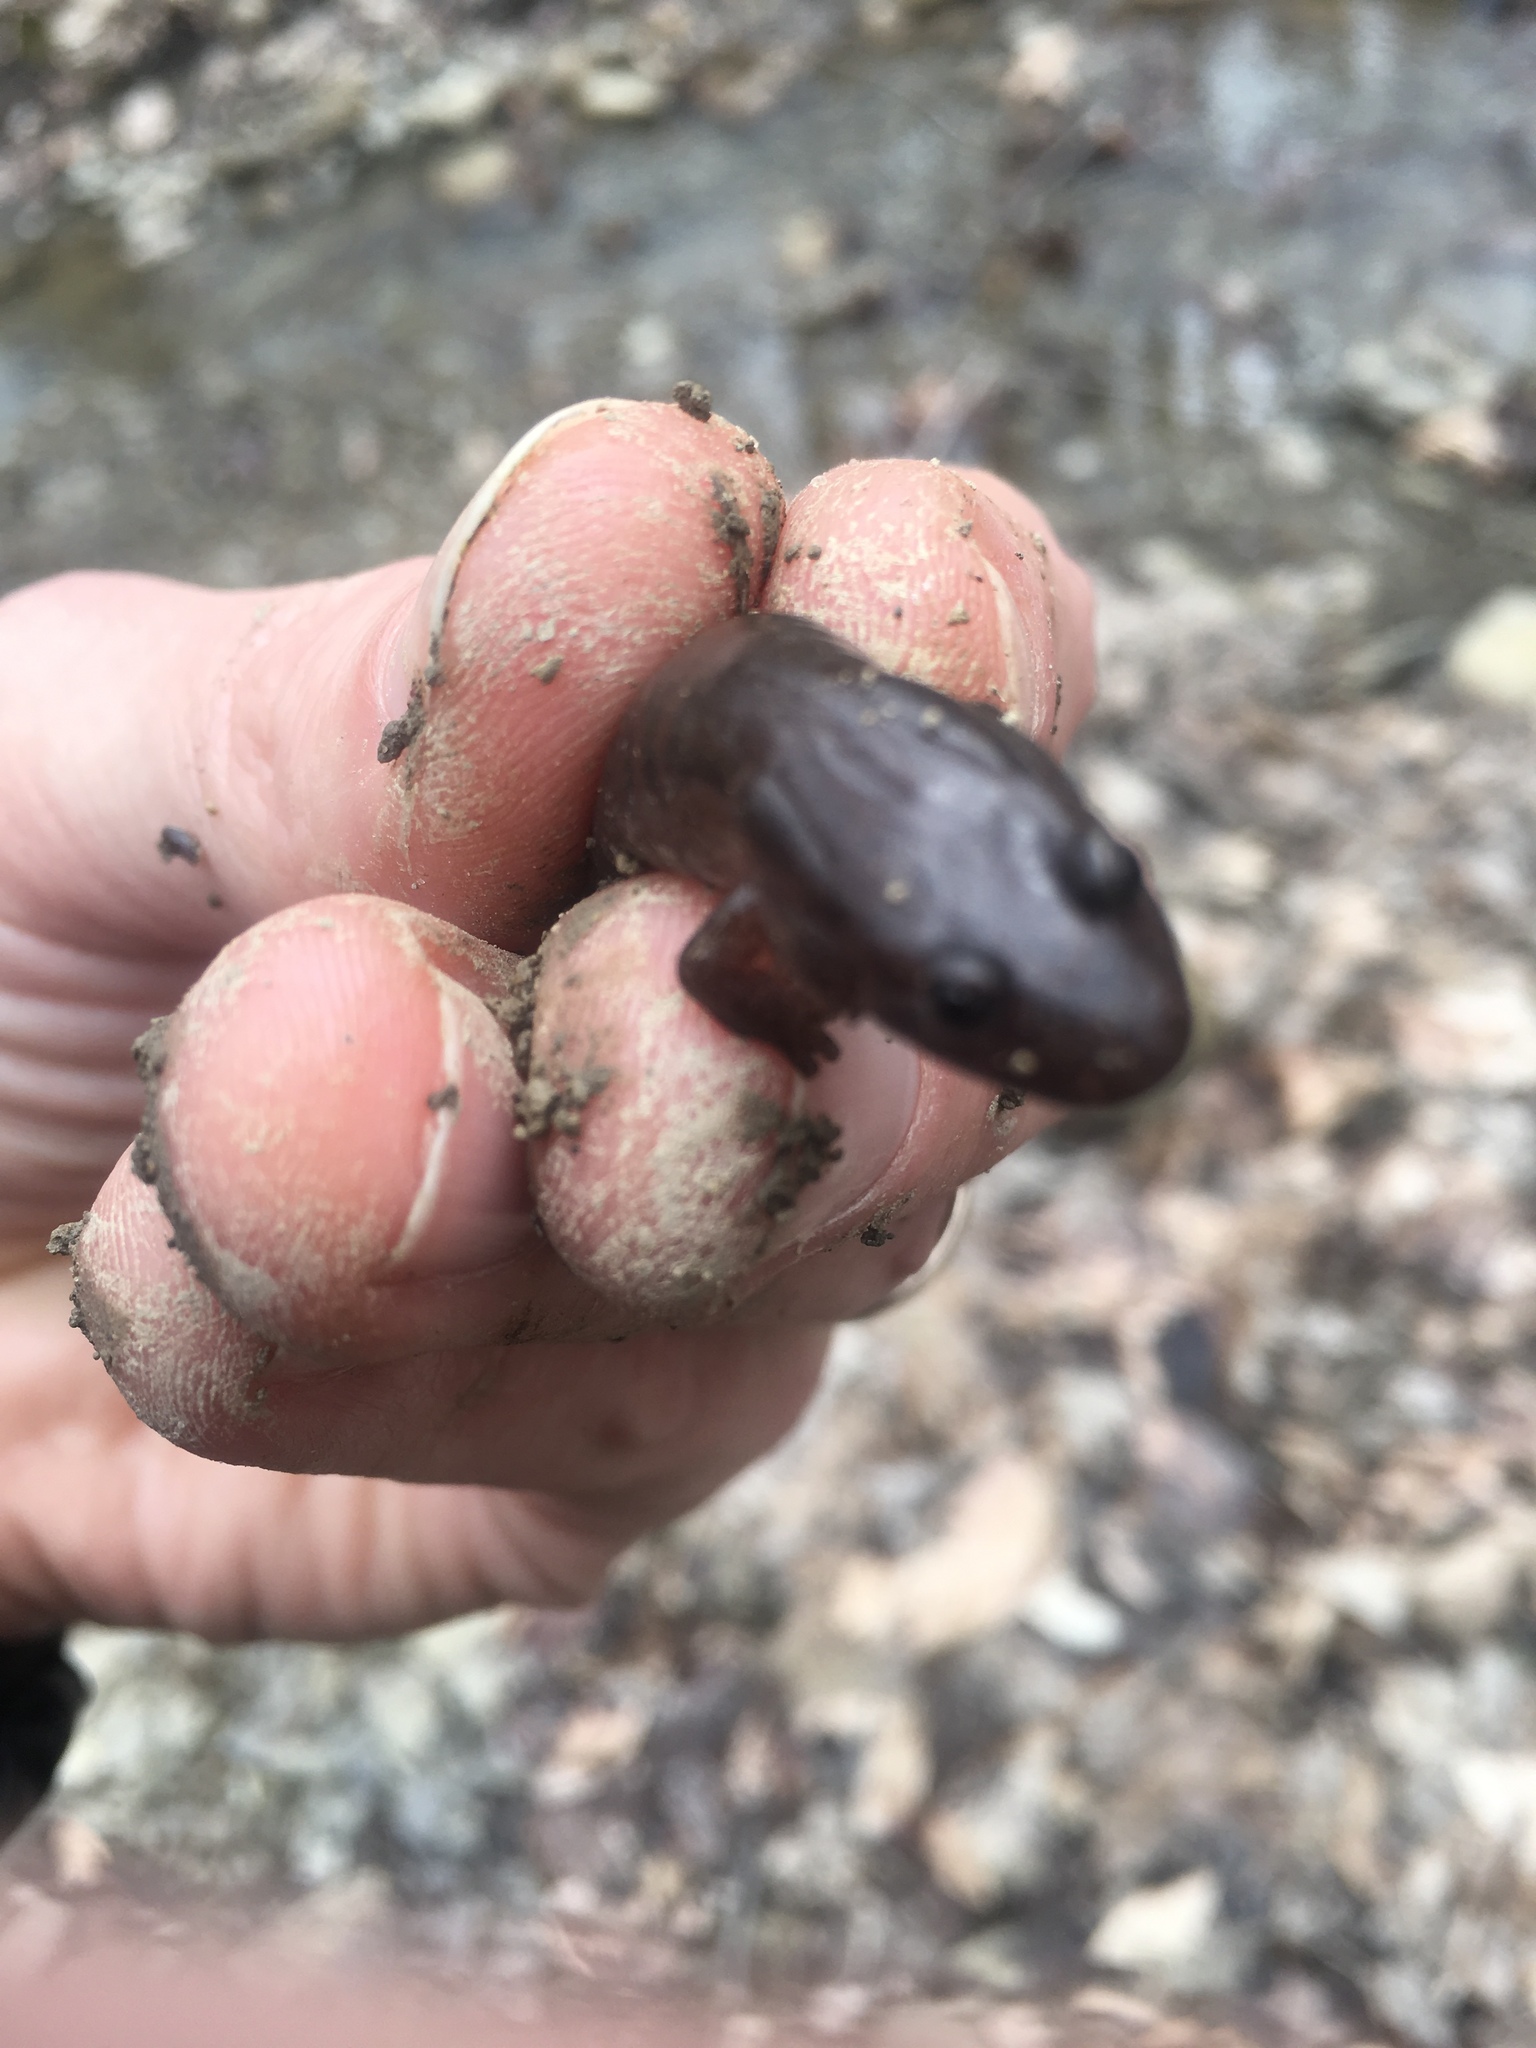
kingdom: Animalia
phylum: Chordata
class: Amphibia
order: Caudata
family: Plethodontidae
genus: Desmognathus
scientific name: Desmognathus ochrophaeus
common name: Allegheny mountain dusky salamander
